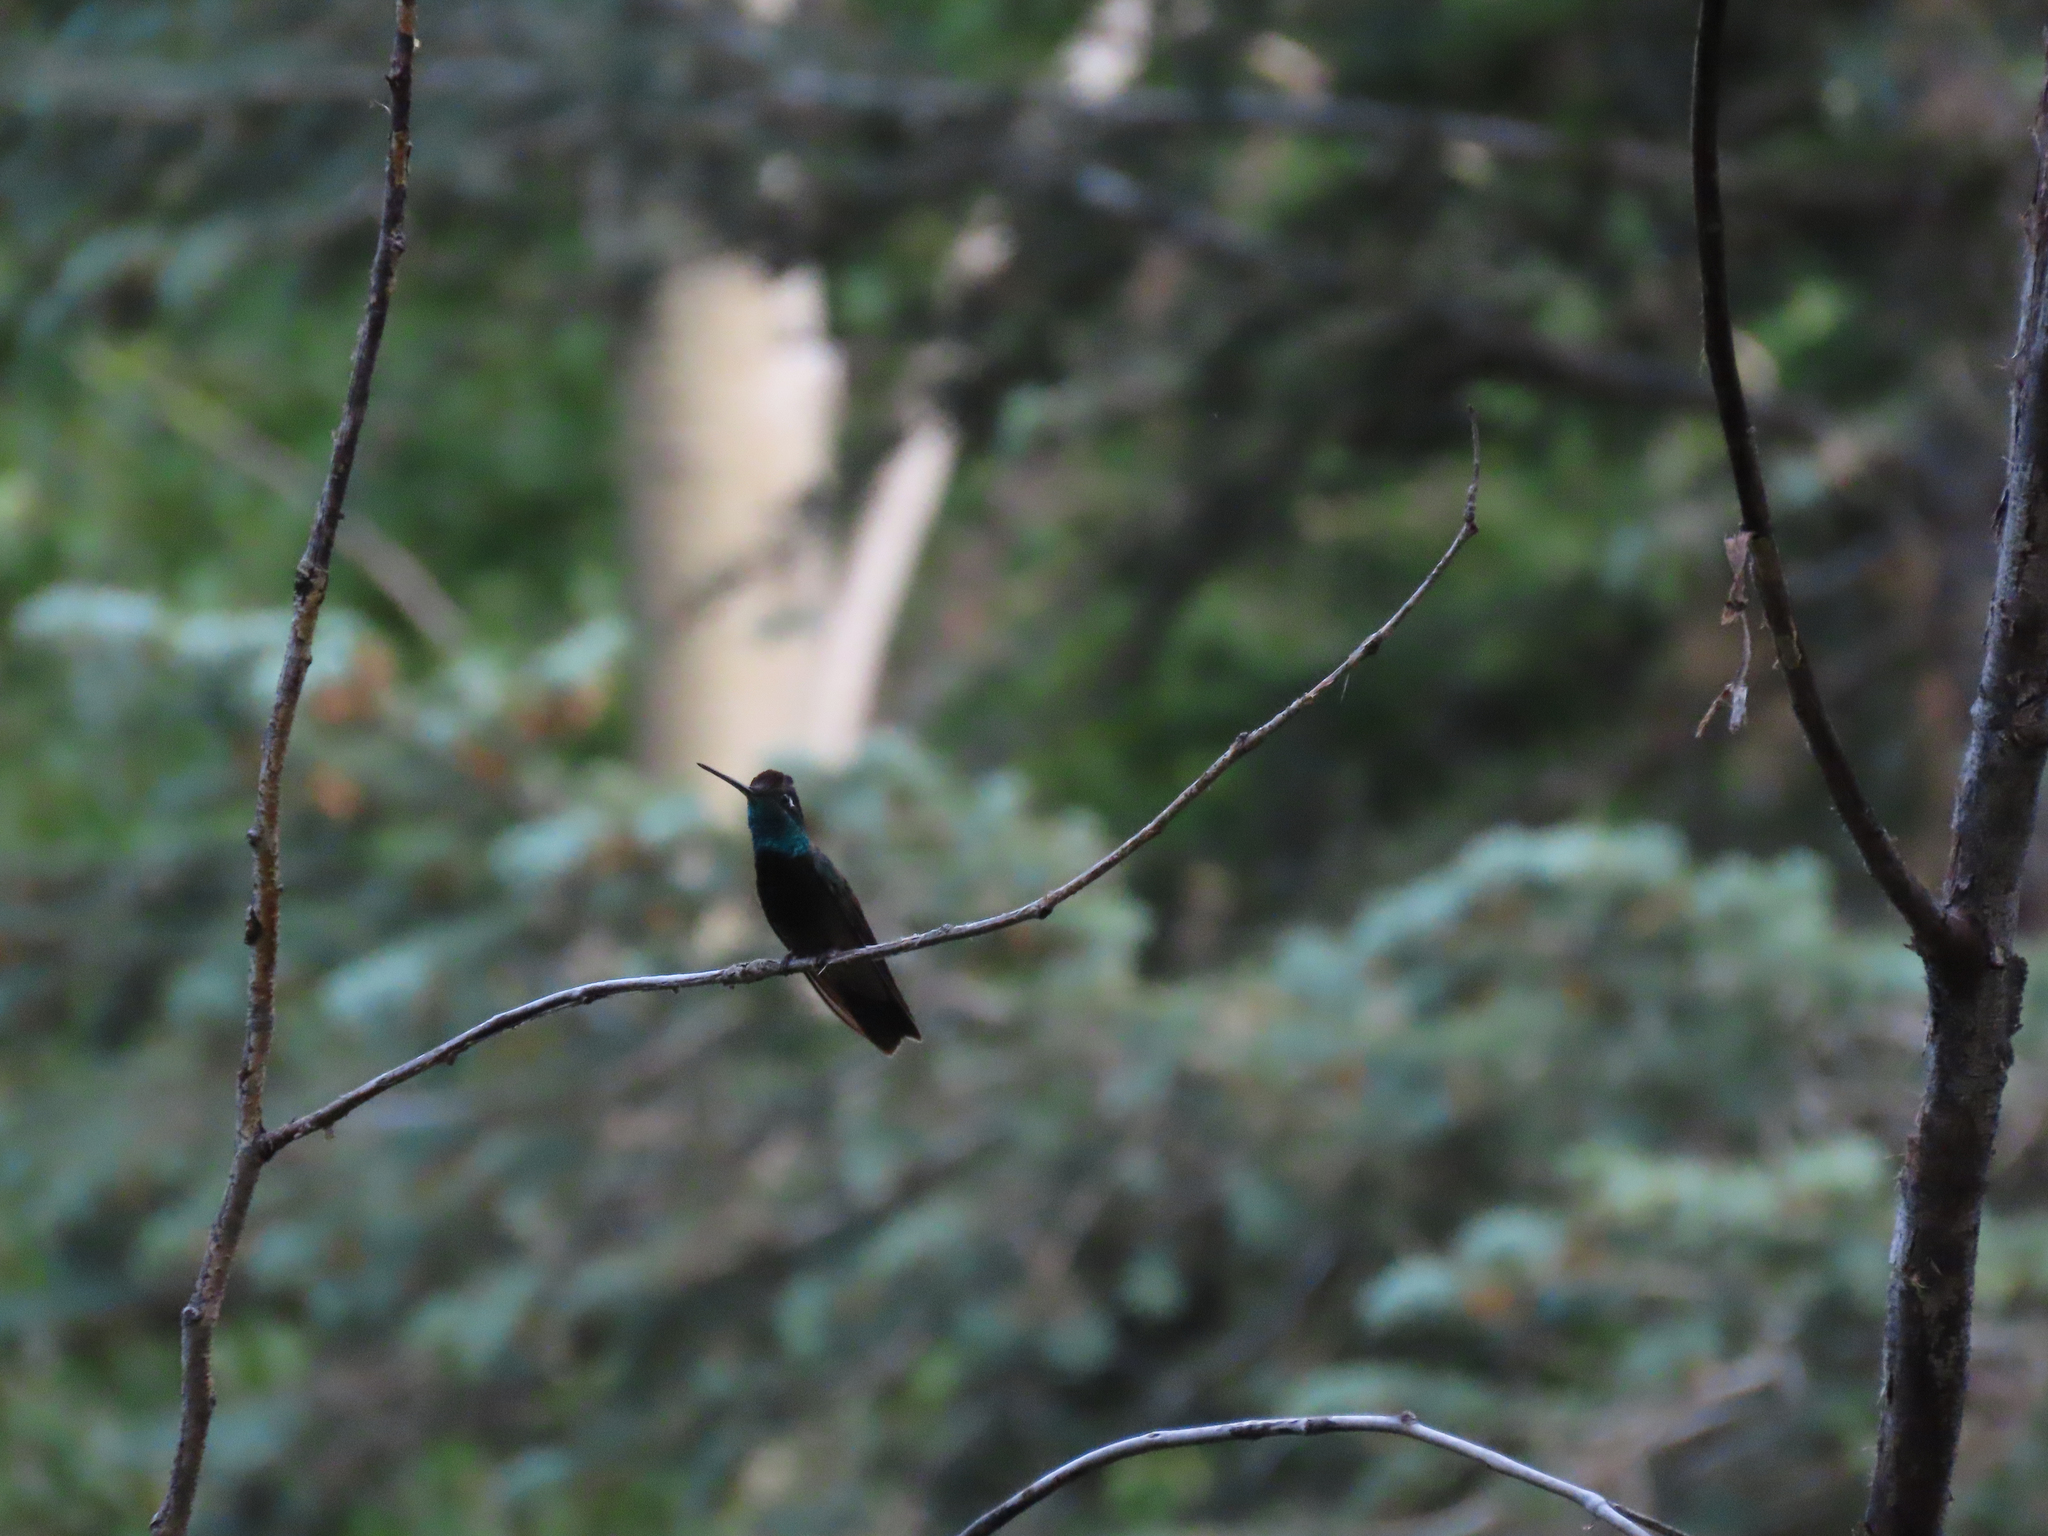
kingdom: Animalia
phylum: Chordata
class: Aves
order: Apodiformes
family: Trochilidae
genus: Eugenes
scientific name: Eugenes fulgens
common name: Magnificent hummingbird
